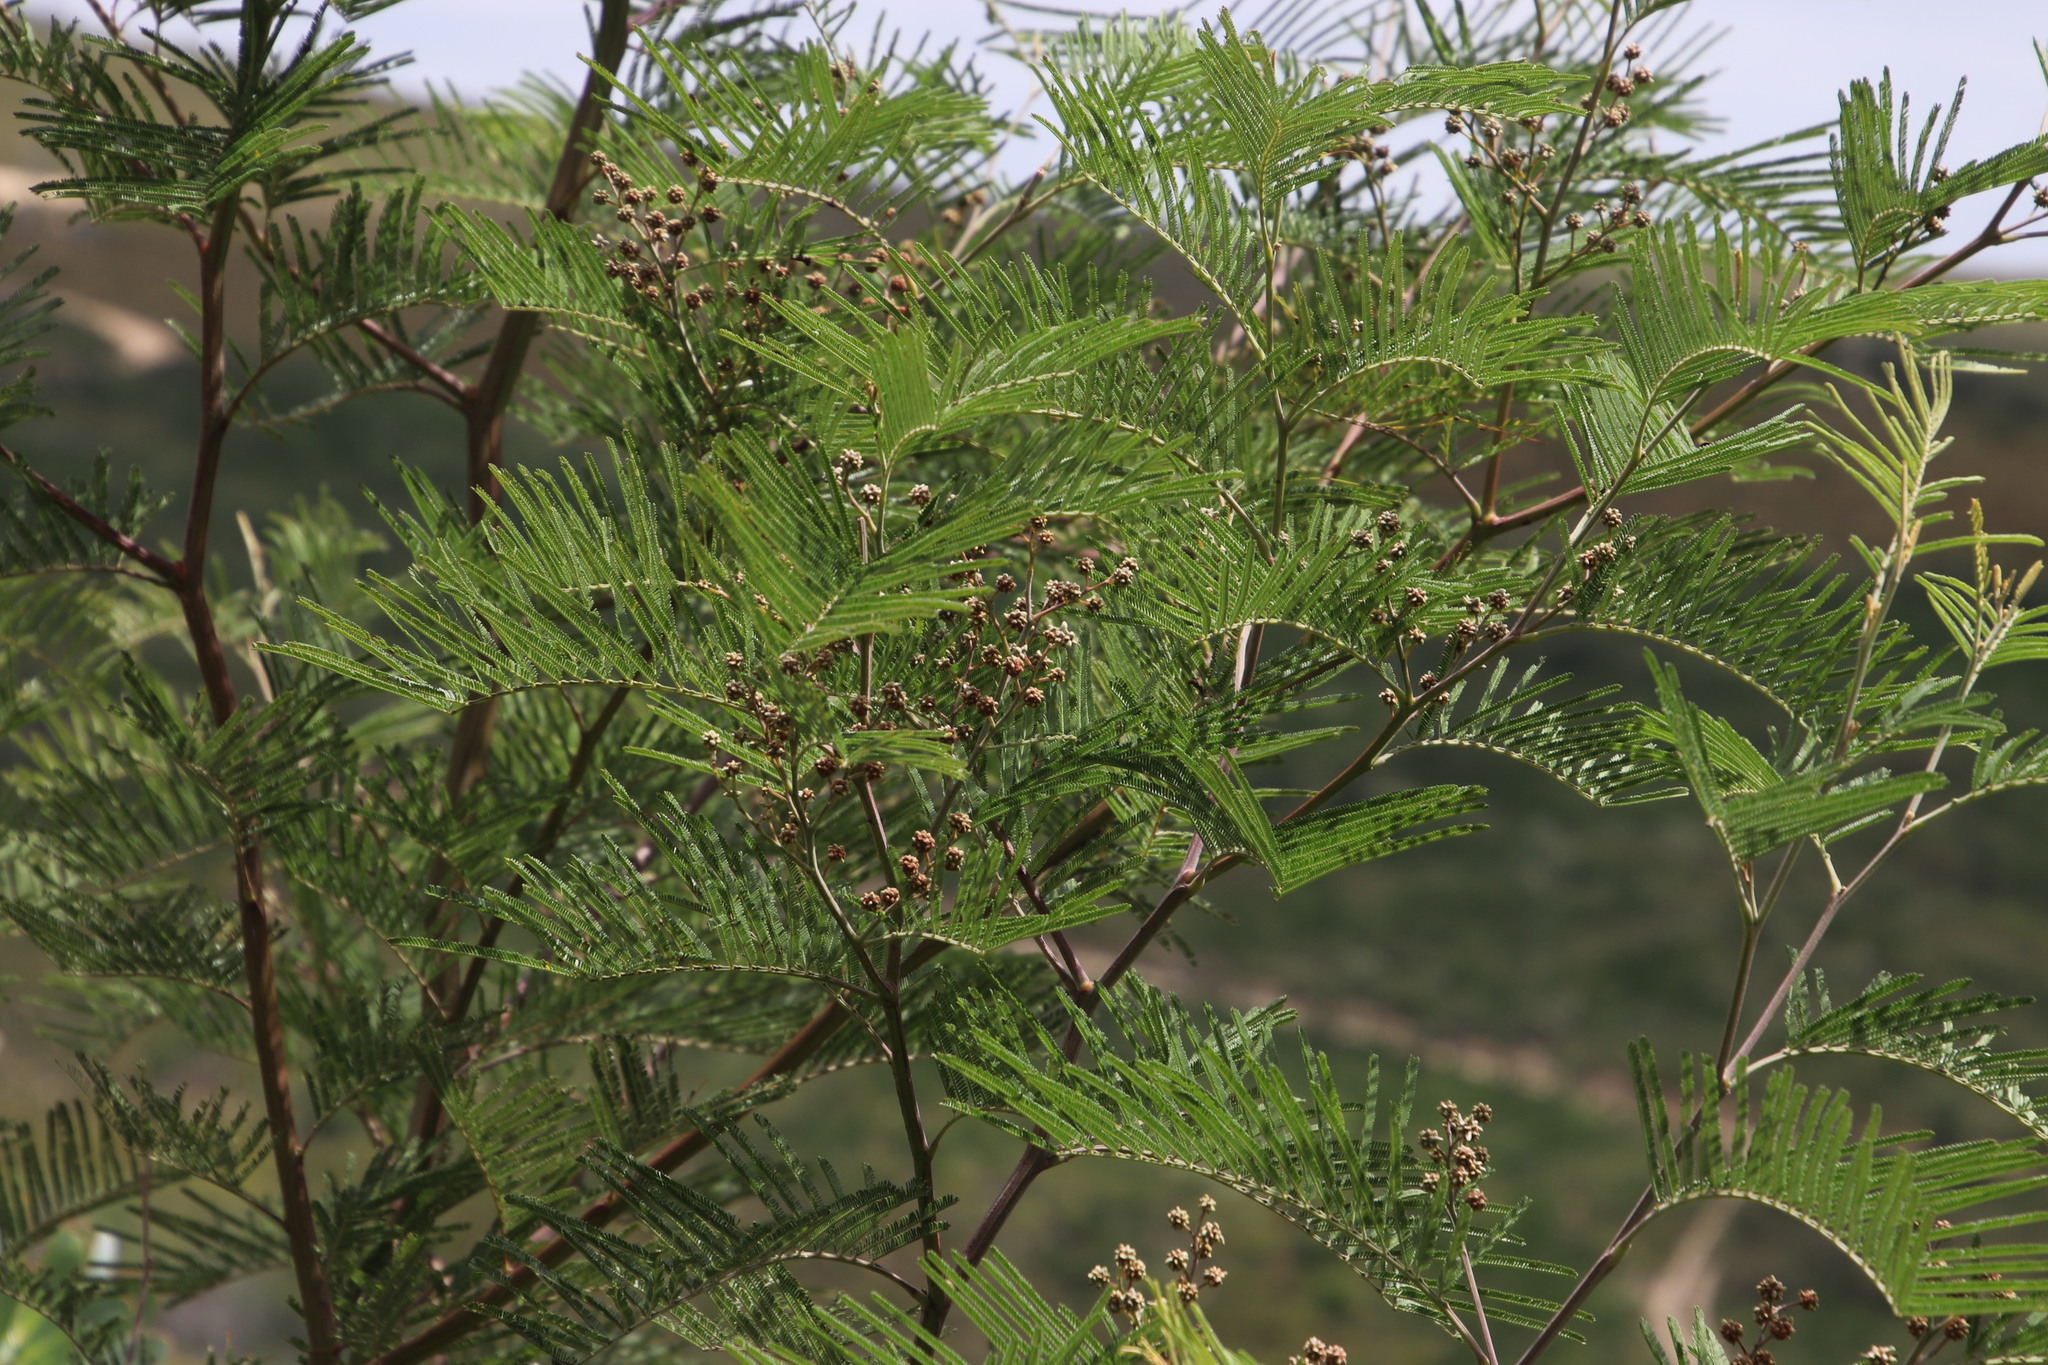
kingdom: Plantae
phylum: Tracheophyta
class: Magnoliopsida
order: Fabales
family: Fabaceae
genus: Acacia
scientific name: Acacia mearnsii
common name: Black wattle
